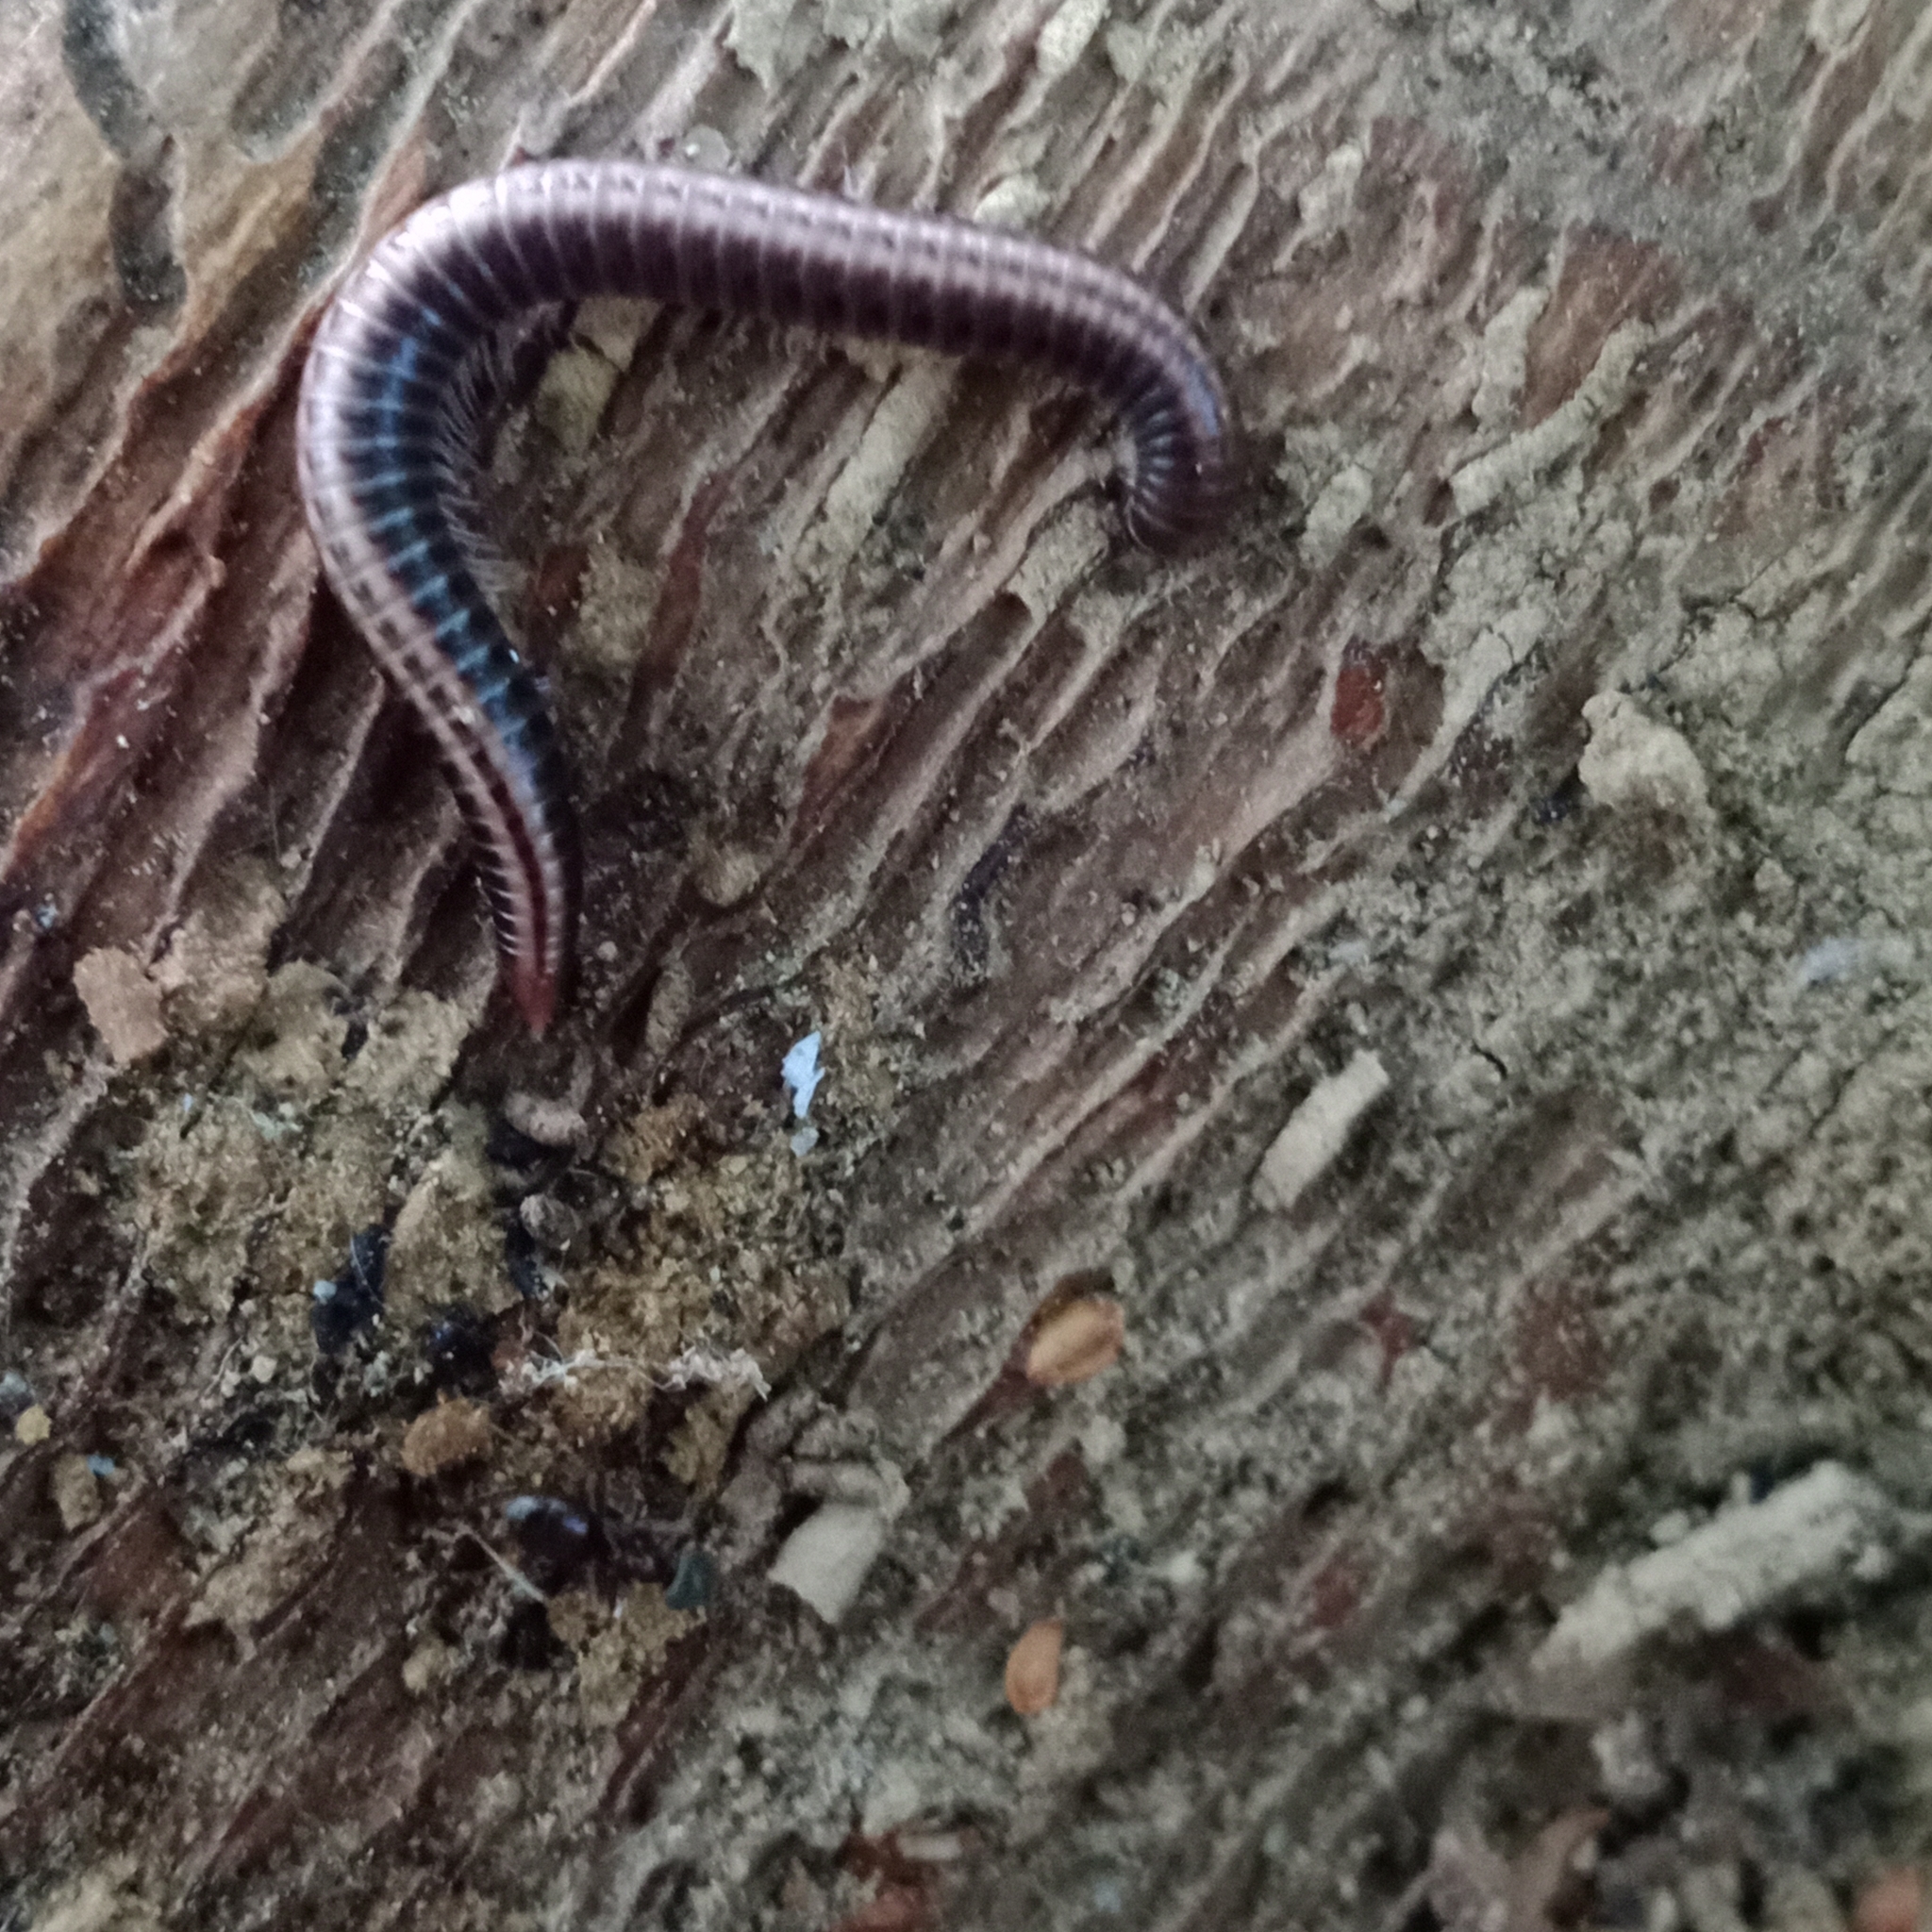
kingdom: Animalia
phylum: Arthropoda
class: Diplopoda
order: Julida
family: Julidae
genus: Ommatoiulus
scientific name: Ommatoiulus sabulosus
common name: Striped millipede
